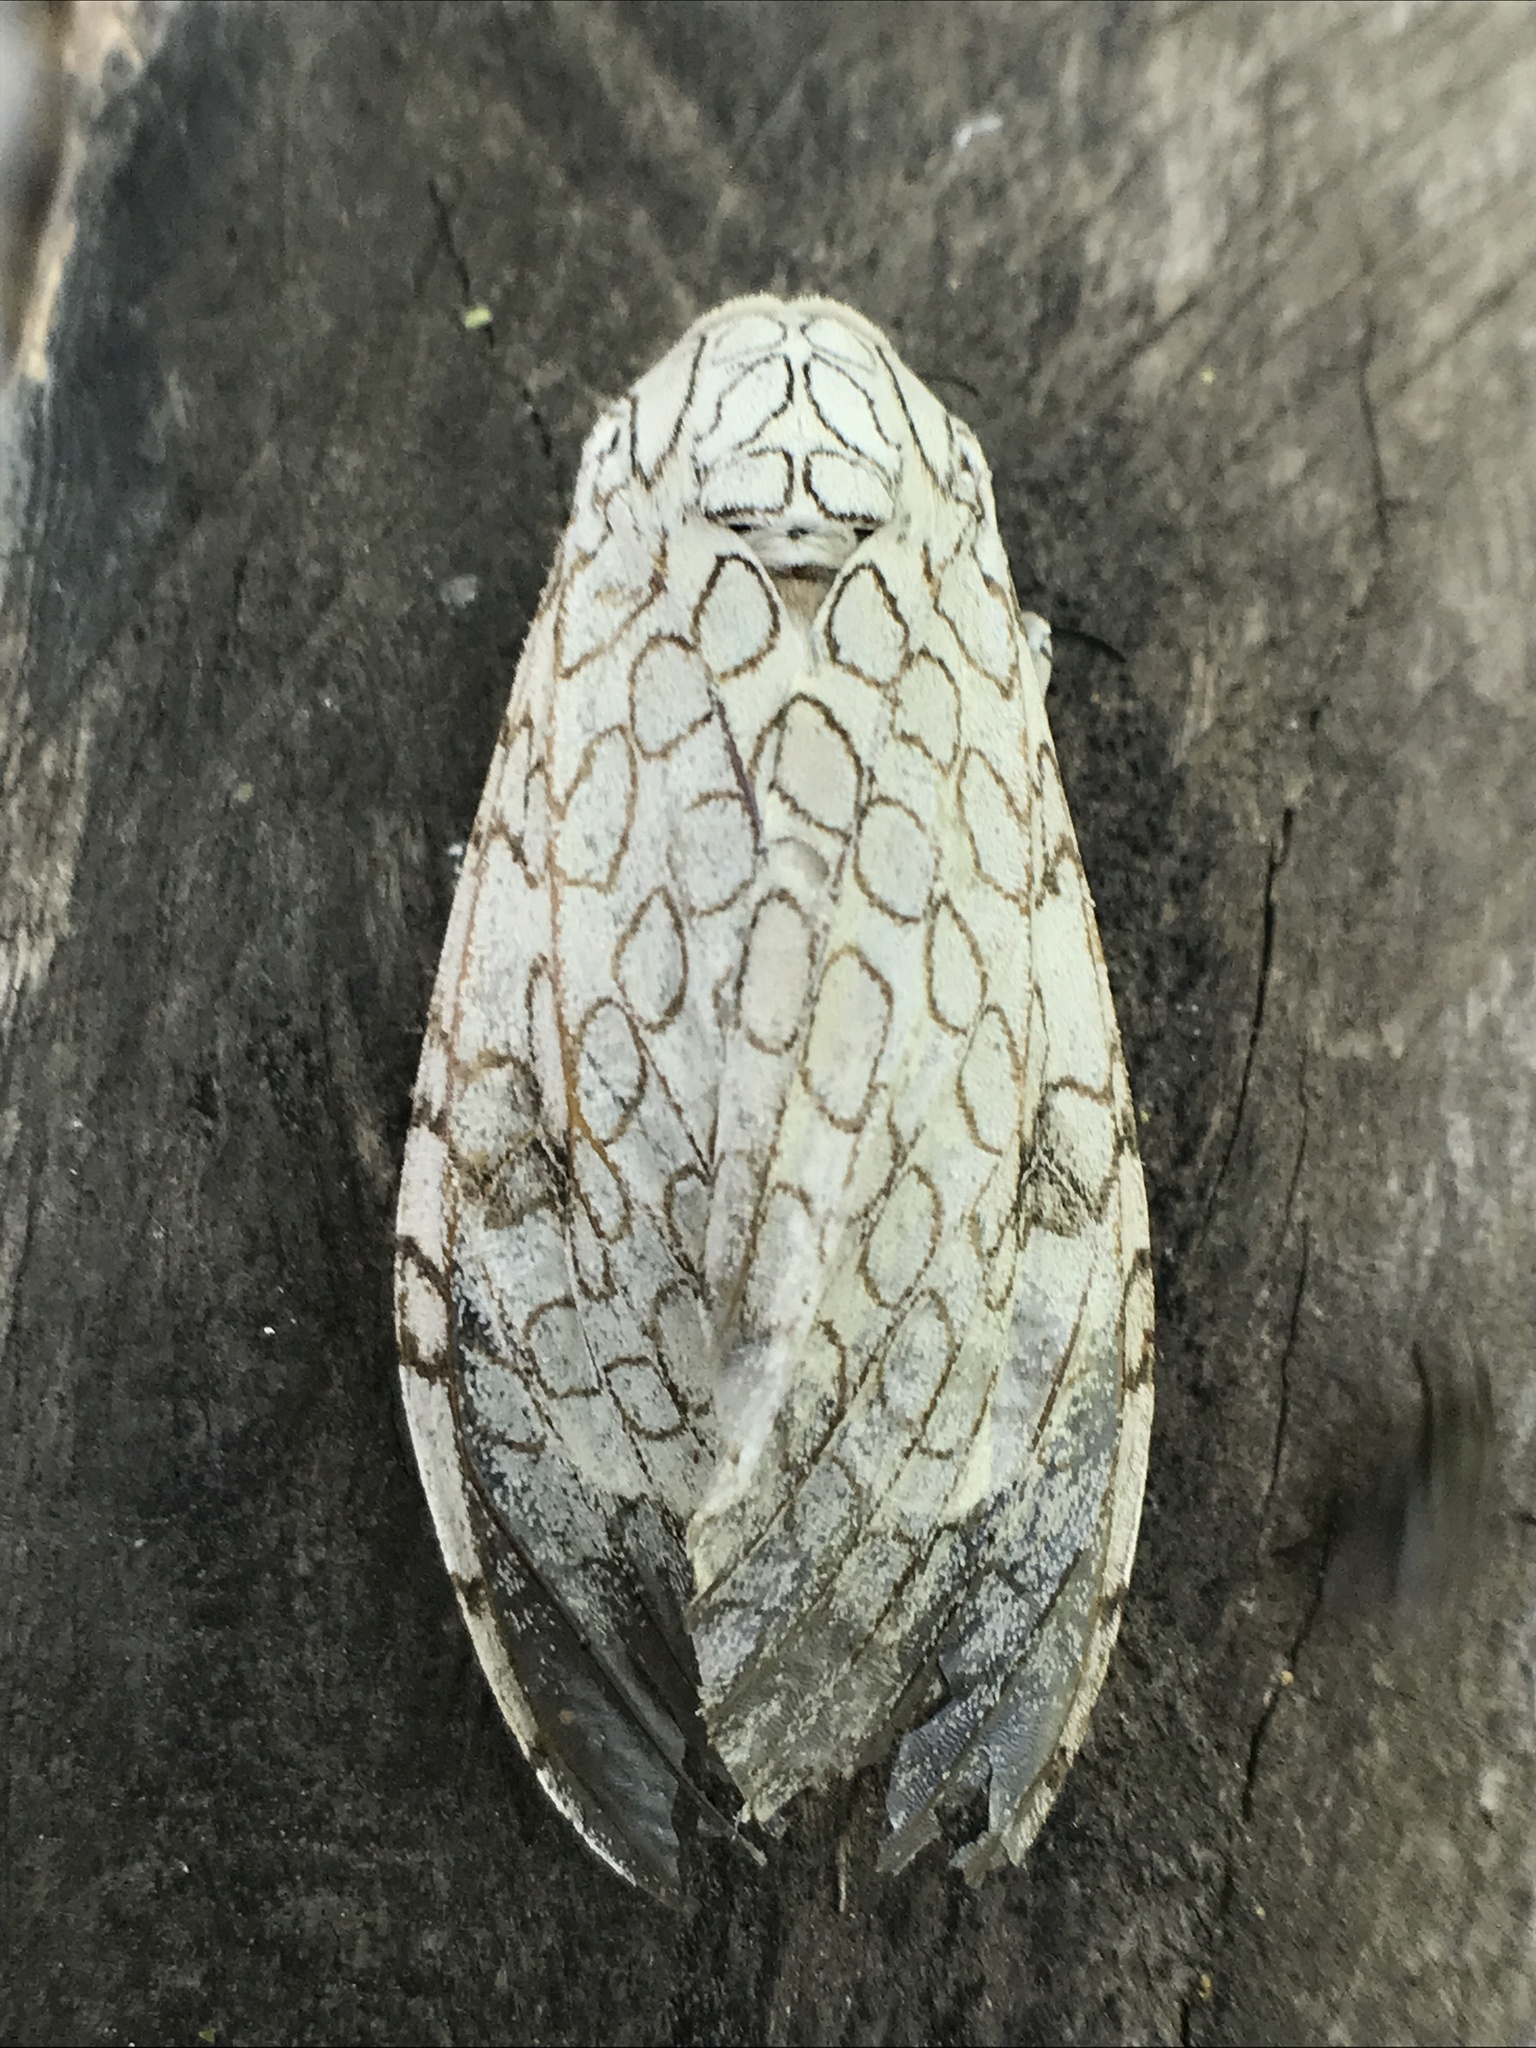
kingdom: Animalia
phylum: Arthropoda
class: Insecta
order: Lepidoptera
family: Erebidae
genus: Hypercompe
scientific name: Hypercompe abdominalis
